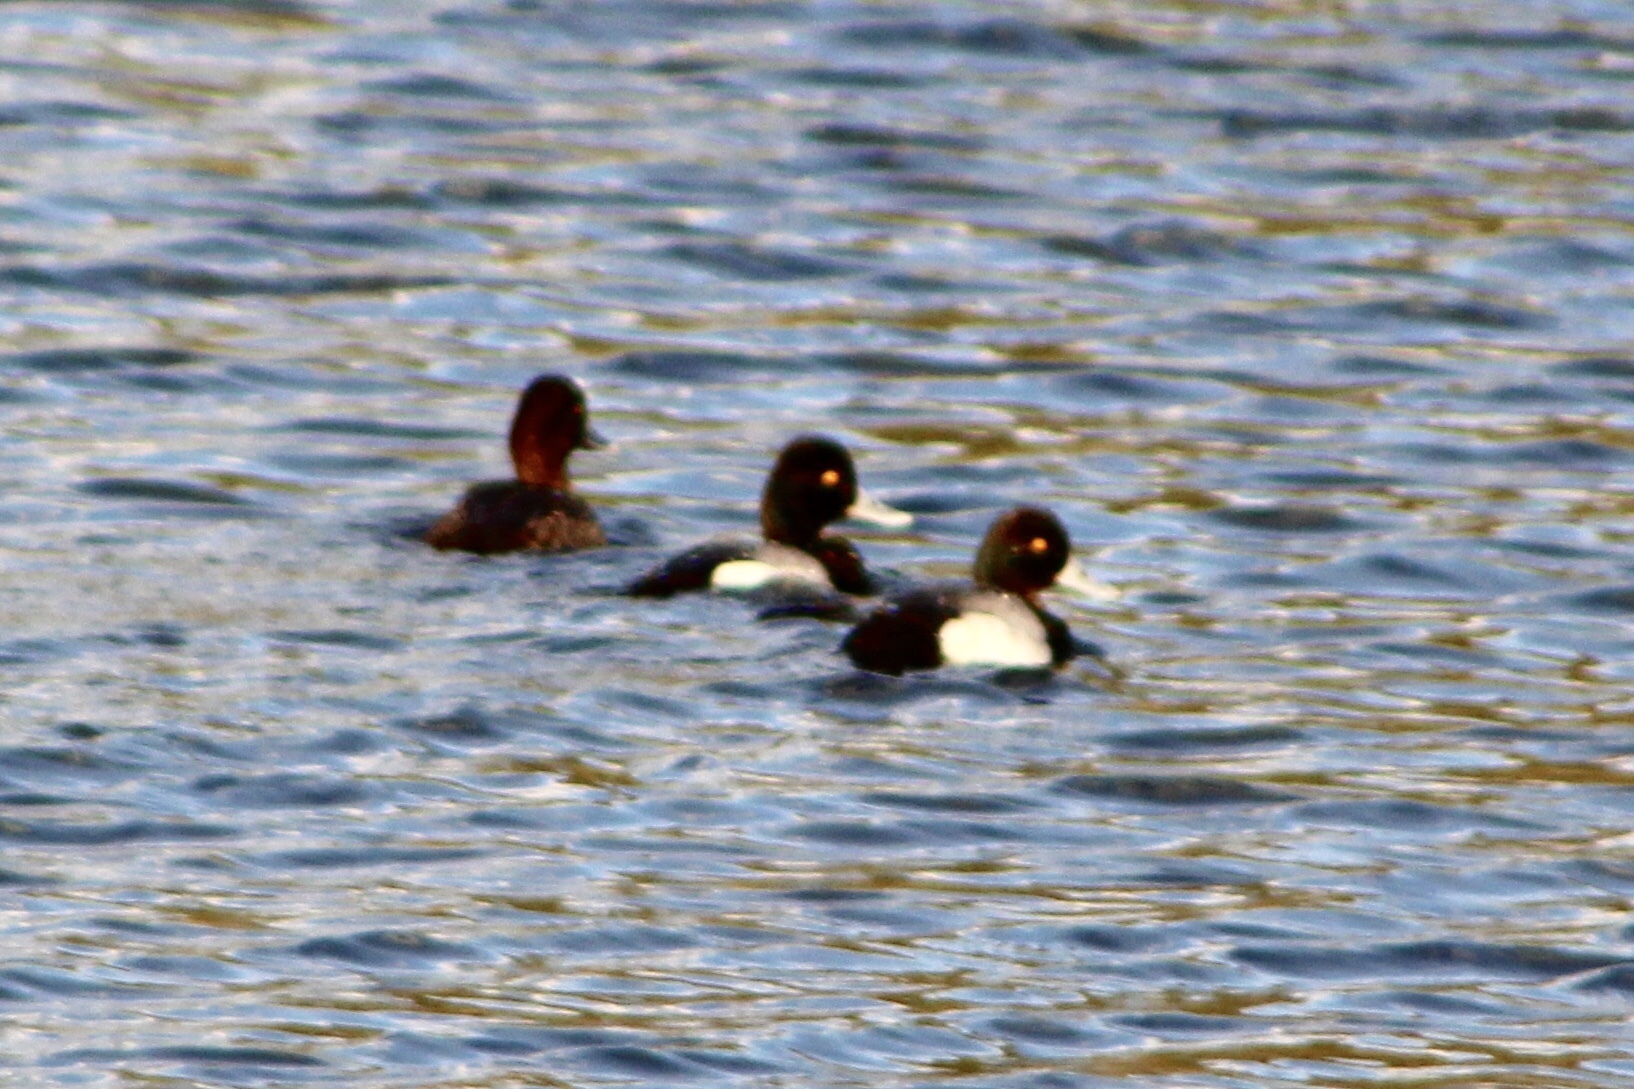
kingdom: Animalia
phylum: Chordata
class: Aves
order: Anseriformes
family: Anatidae
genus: Aythya
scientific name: Aythya affinis
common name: Lesser scaup
